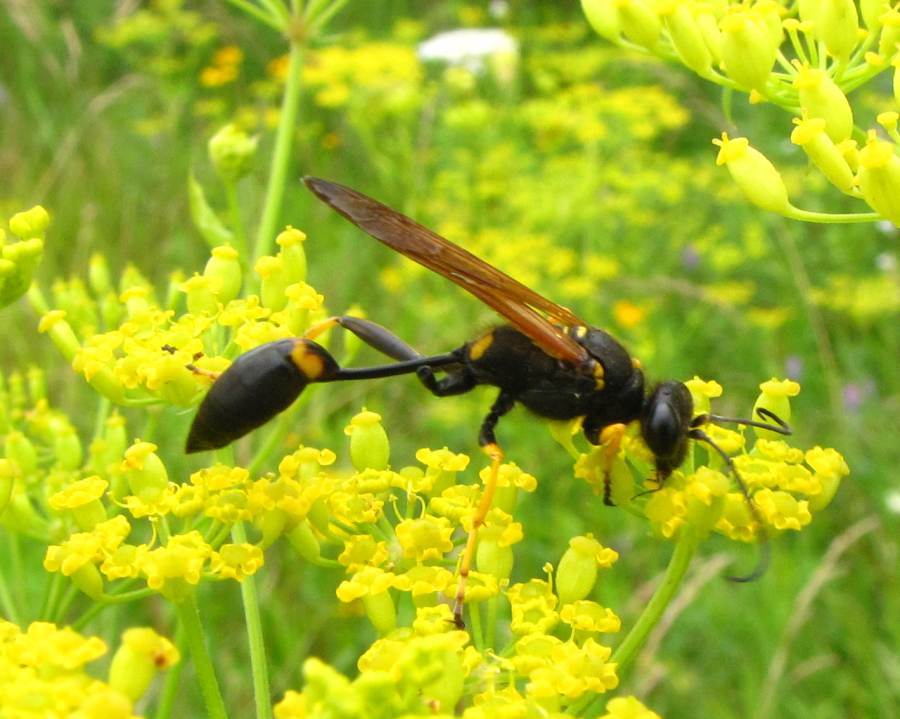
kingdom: Animalia
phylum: Arthropoda
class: Insecta
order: Hymenoptera
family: Sphecidae
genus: Sceliphron
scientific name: Sceliphron caementarium
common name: Mud dauber
